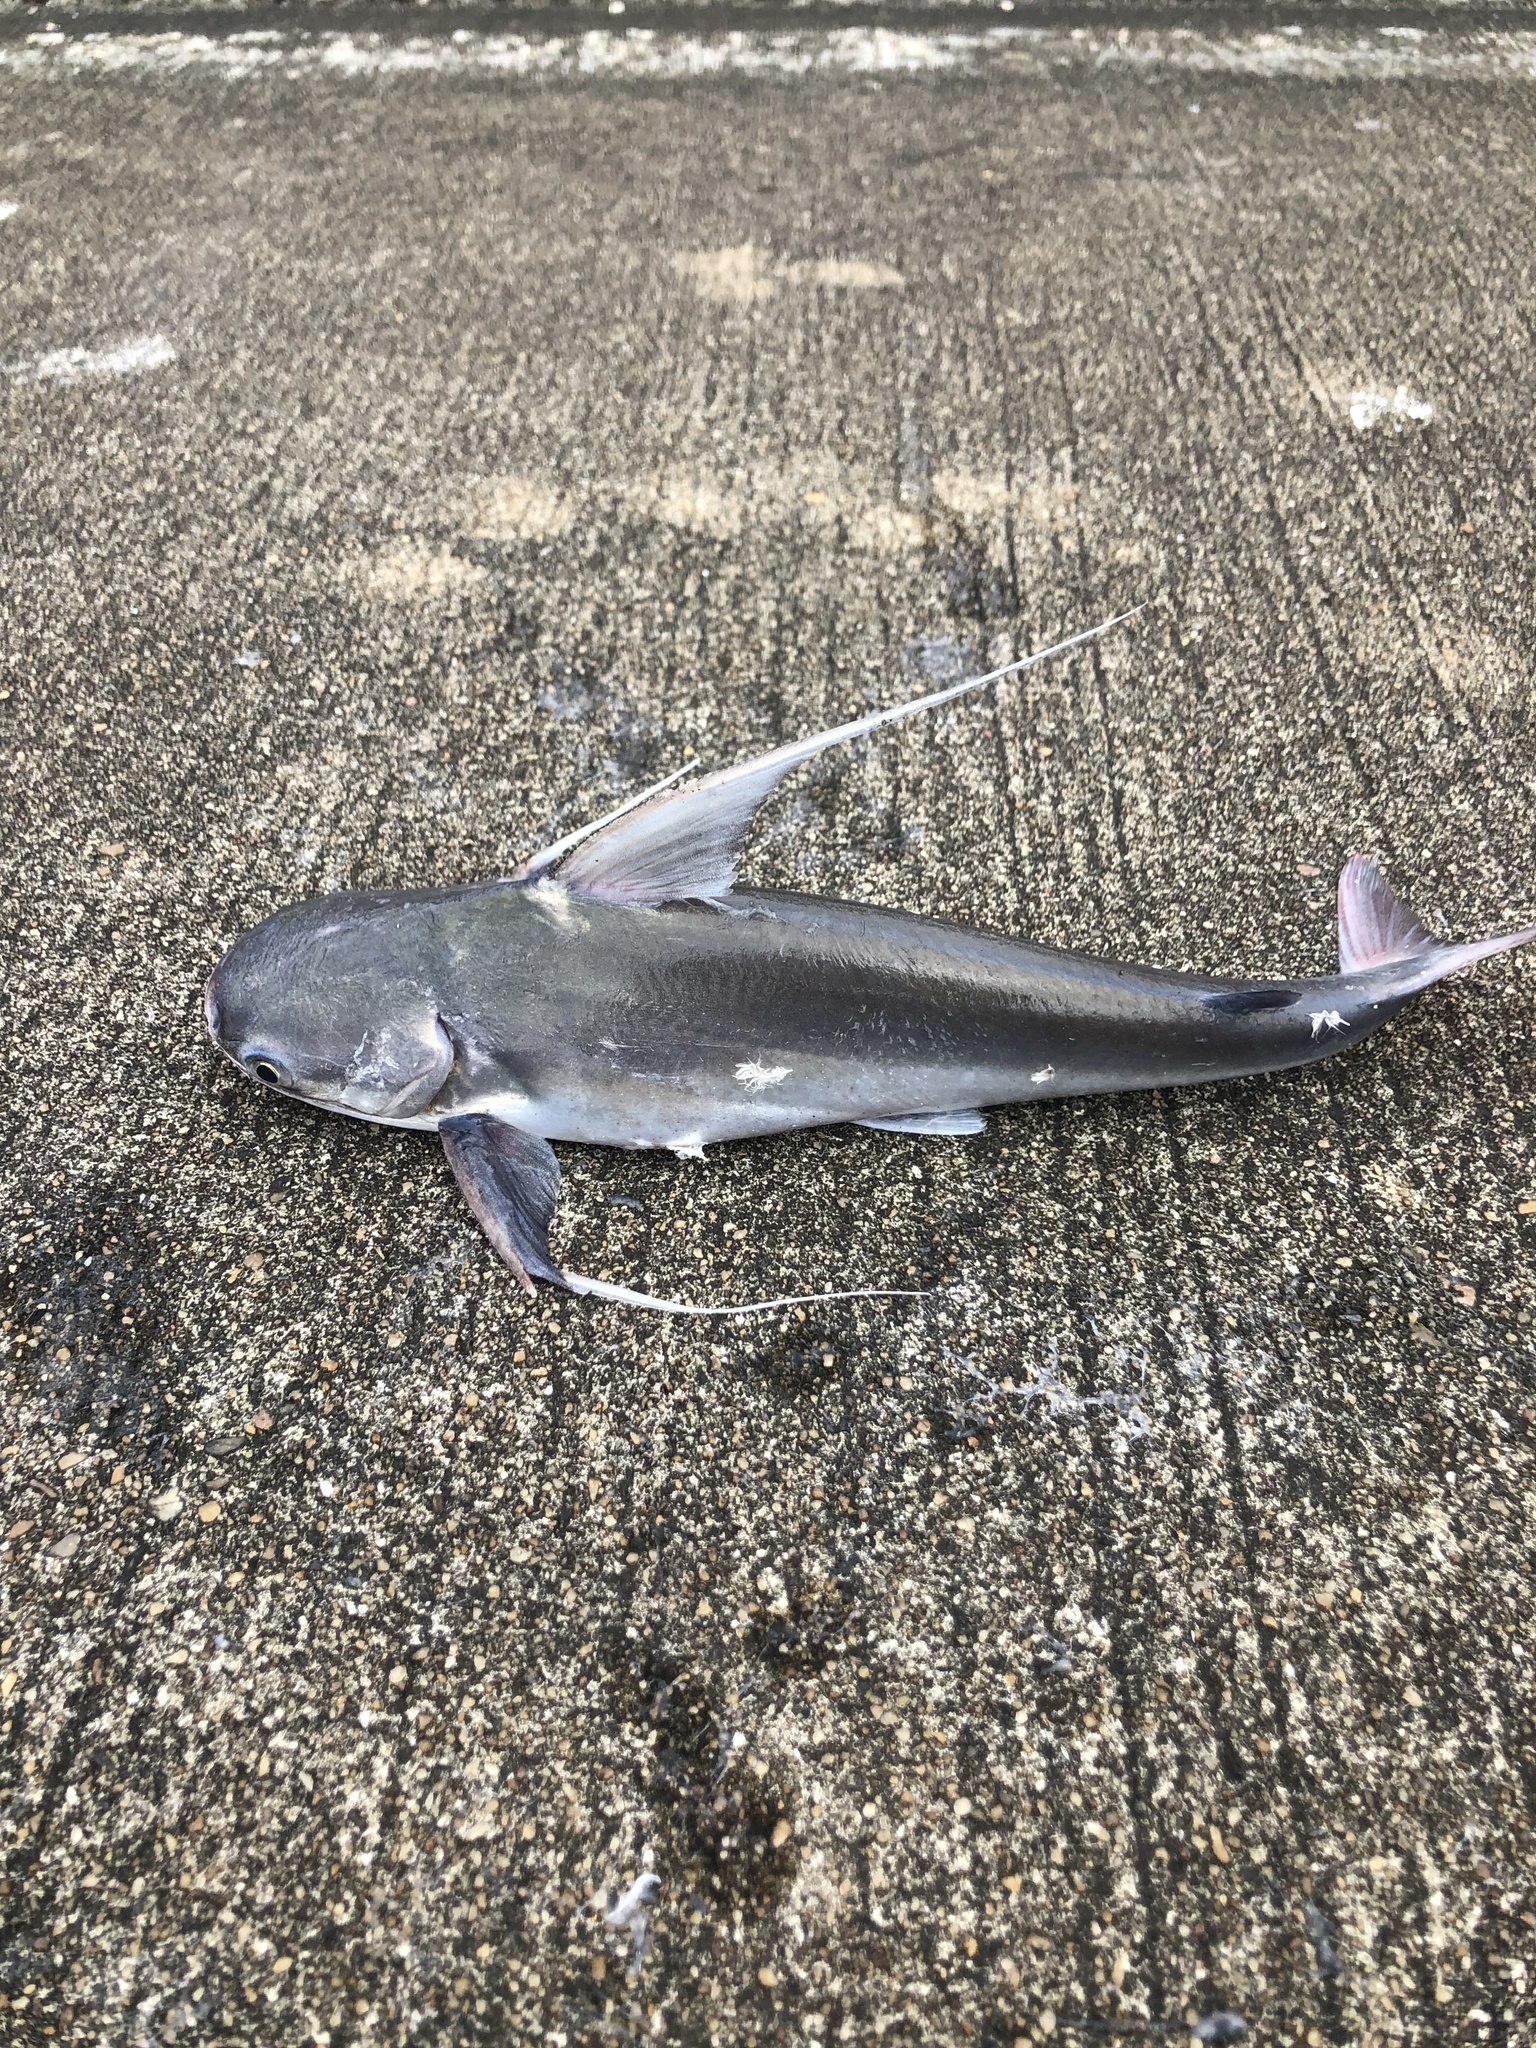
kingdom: Animalia
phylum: Chordata
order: Siluriformes
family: Ariidae
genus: Bagre
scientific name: Bagre marinus
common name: Gafftopsail sea catfish
